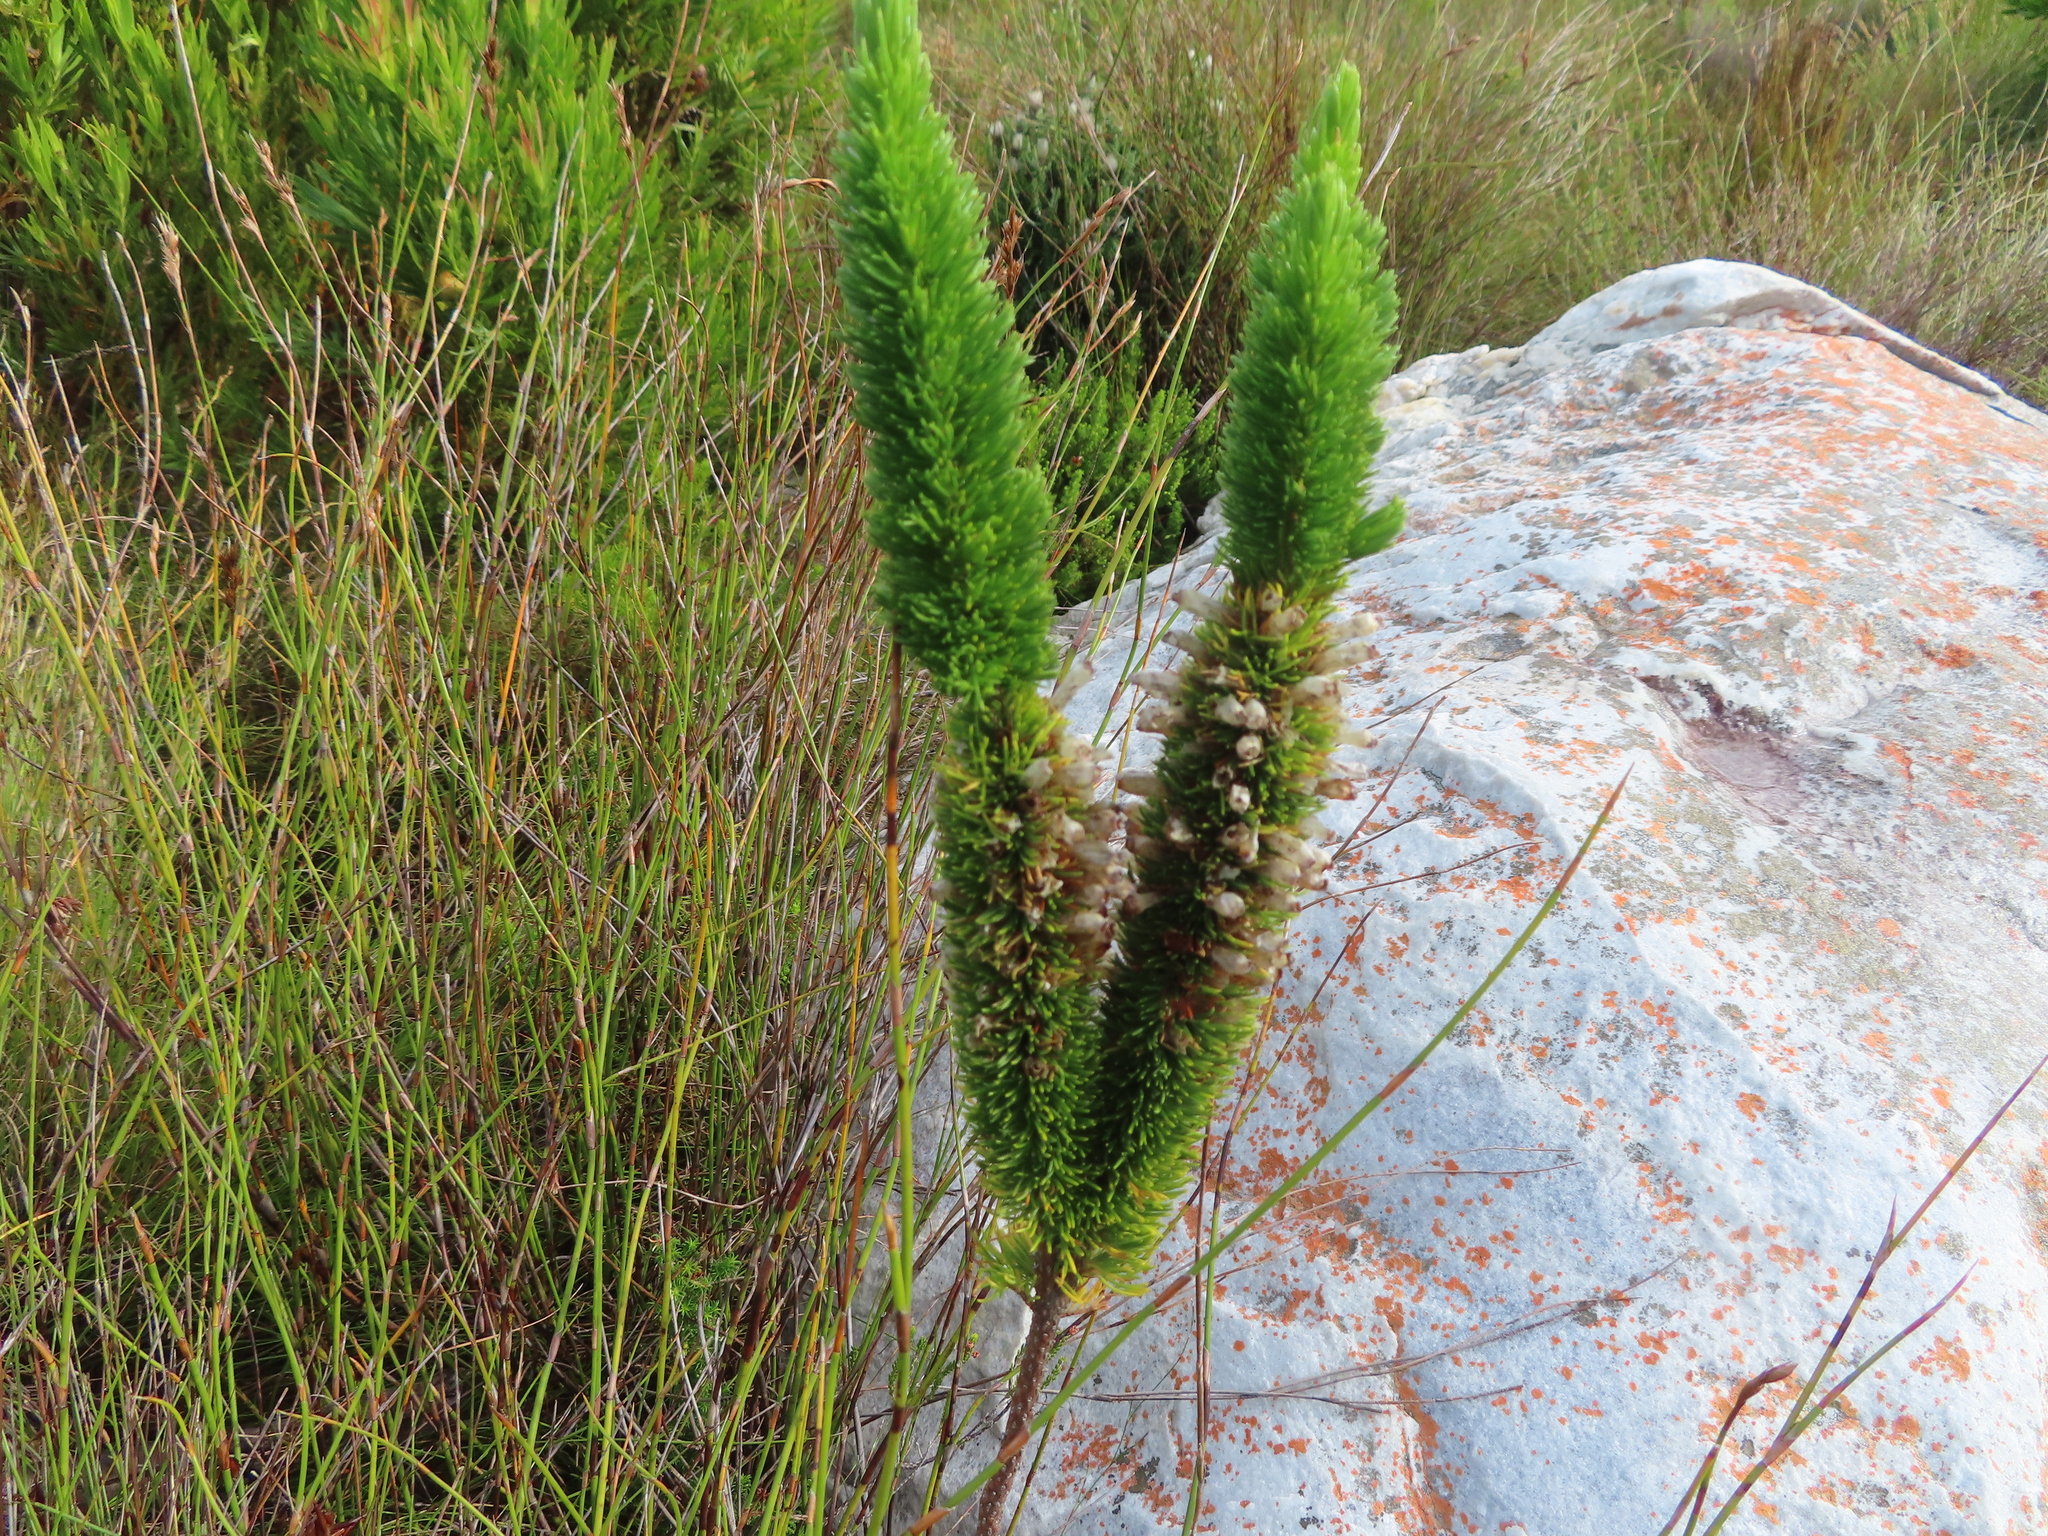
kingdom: Plantae
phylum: Tracheophyta
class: Magnoliopsida
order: Ericales
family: Ericaceae
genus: Erica
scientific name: Erica patersonia
